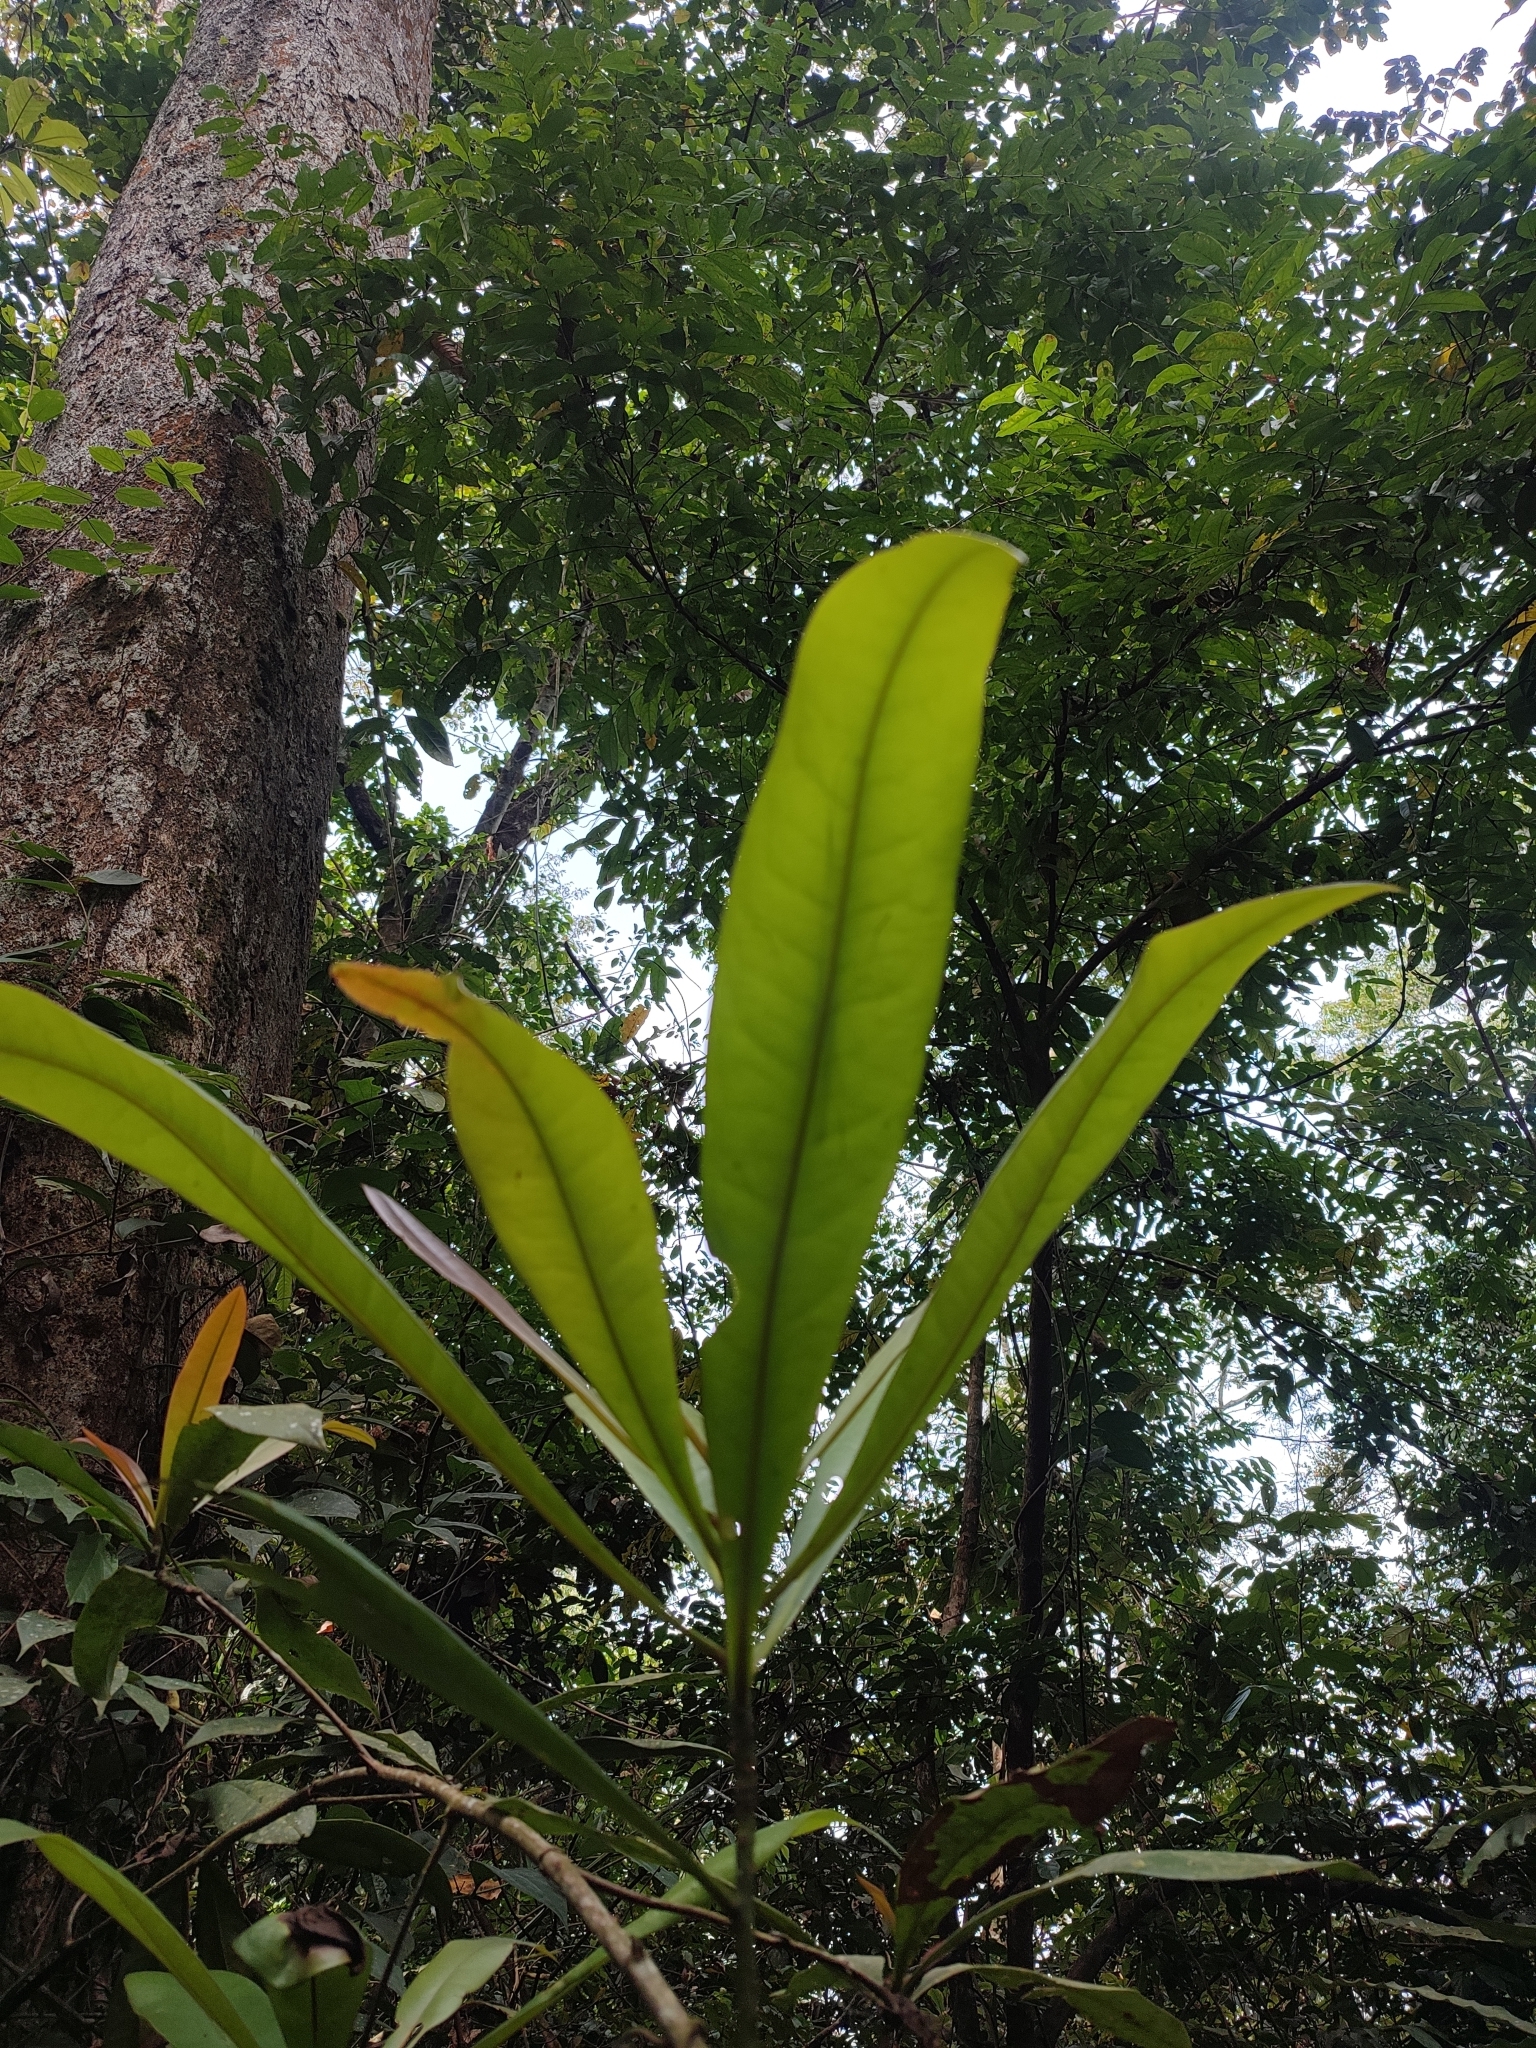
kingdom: Plantae
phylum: Tracheophyta
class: Magnoliopsida
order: Caryophyllales
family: Ancistrocladaceae
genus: Ancistrocladus
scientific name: Ancistrocladus heyneanus
